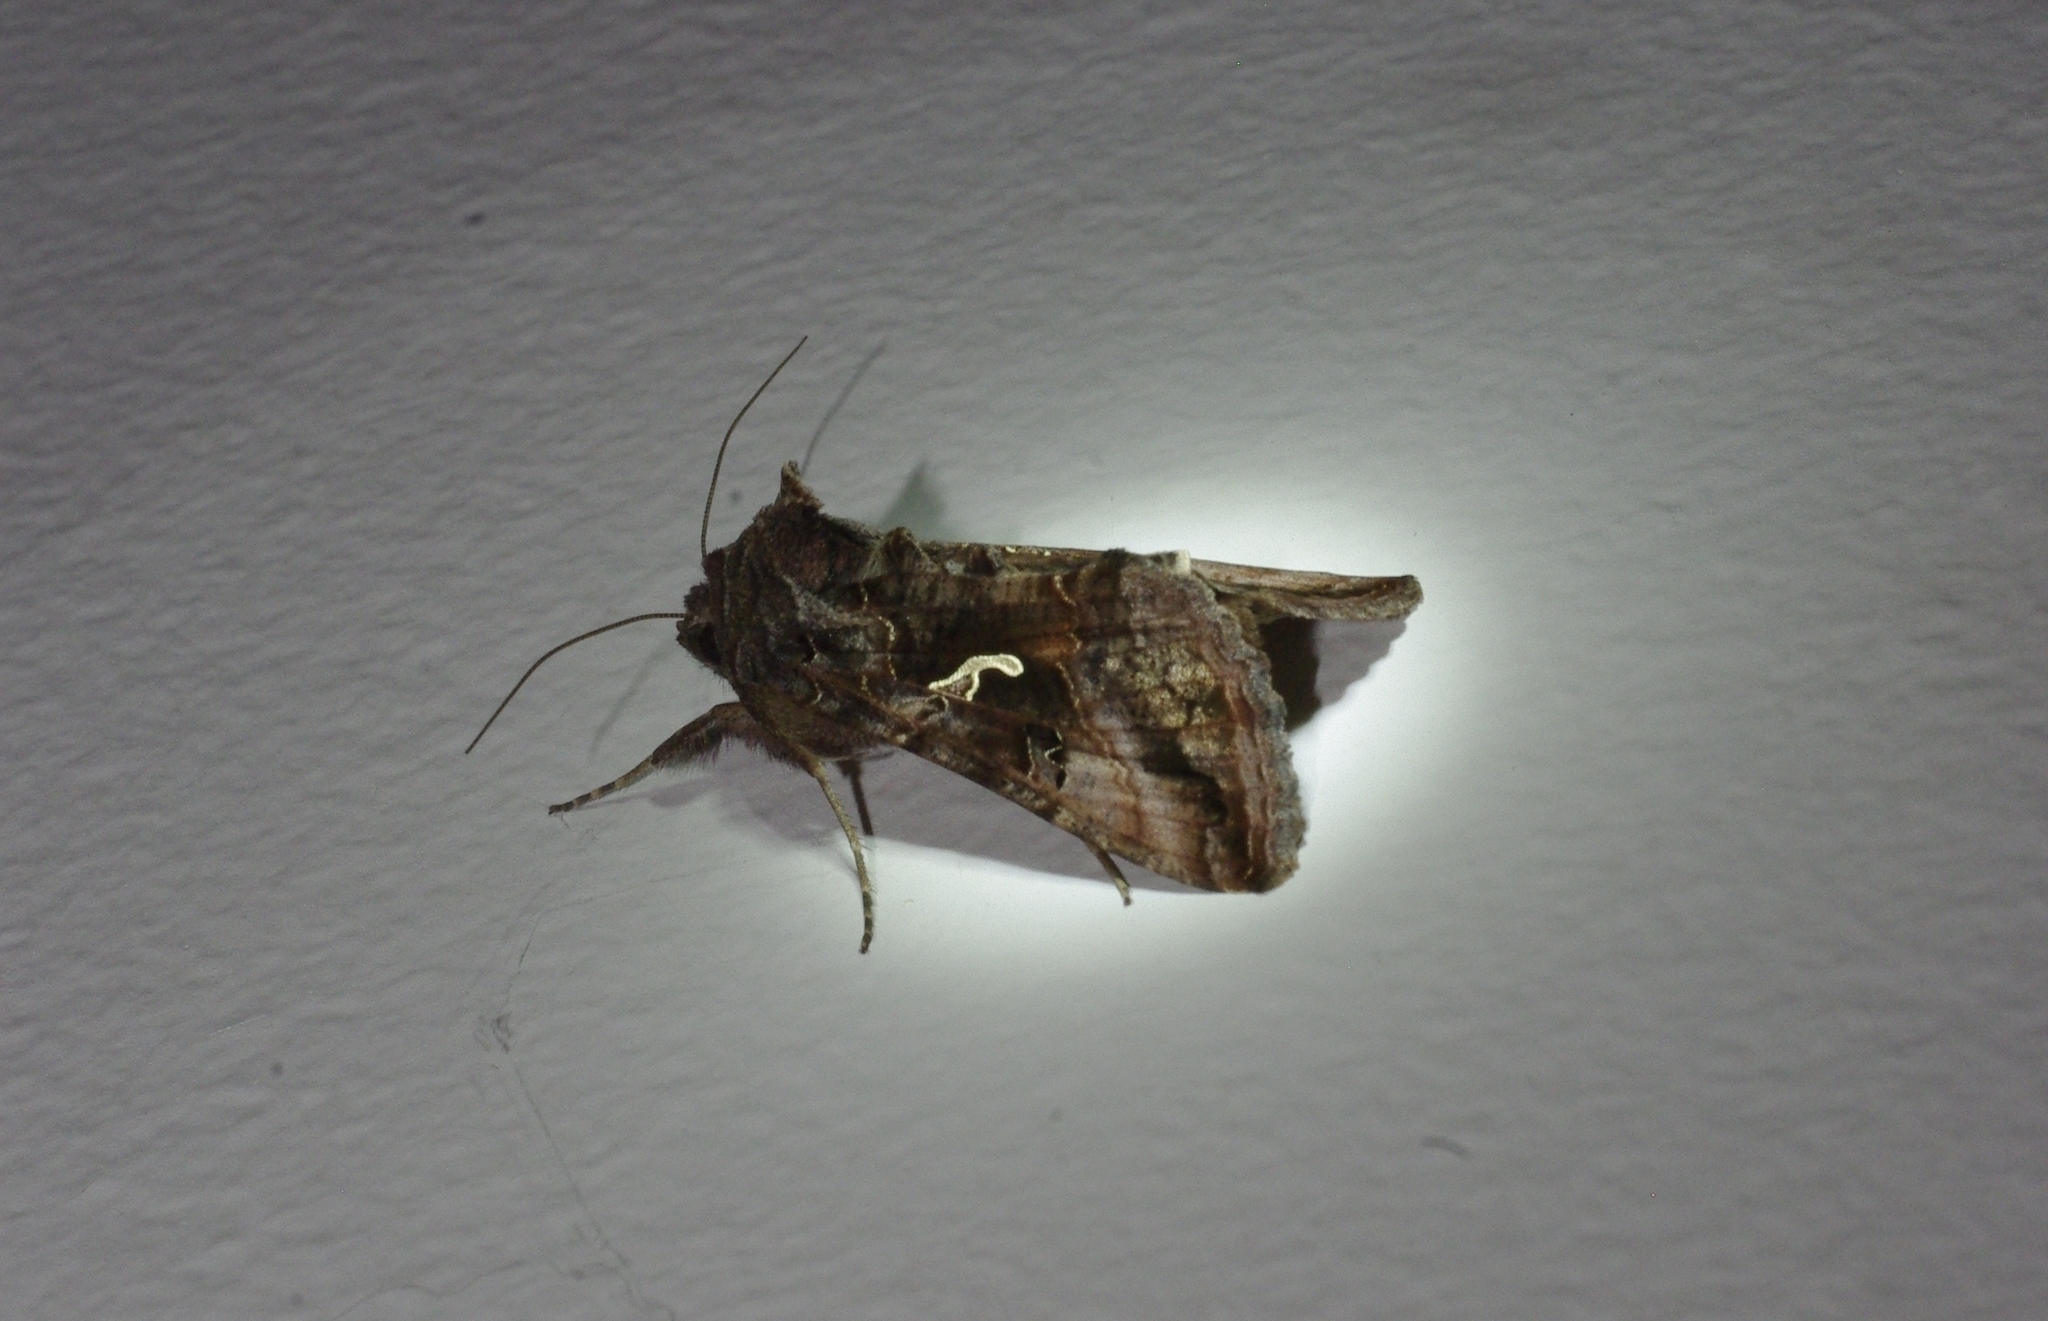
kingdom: Animalia
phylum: Arthropoda
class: Insecta
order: Lepidoptera
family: Noctuidae
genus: Autographa
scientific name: Autographa gamma
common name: Silver y
